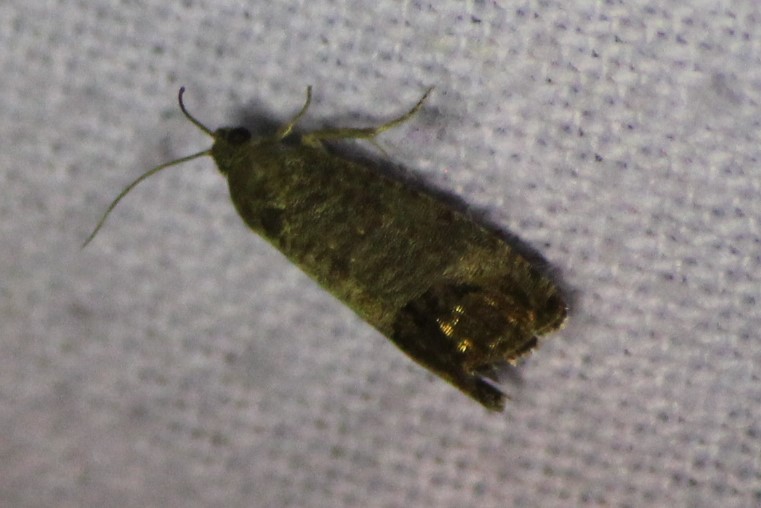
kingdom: Animalia
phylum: Arthropoda
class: Insecta
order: Lepidoptera
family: Tortricidae
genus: Cydia
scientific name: Cydia pomonella
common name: Codling moth
